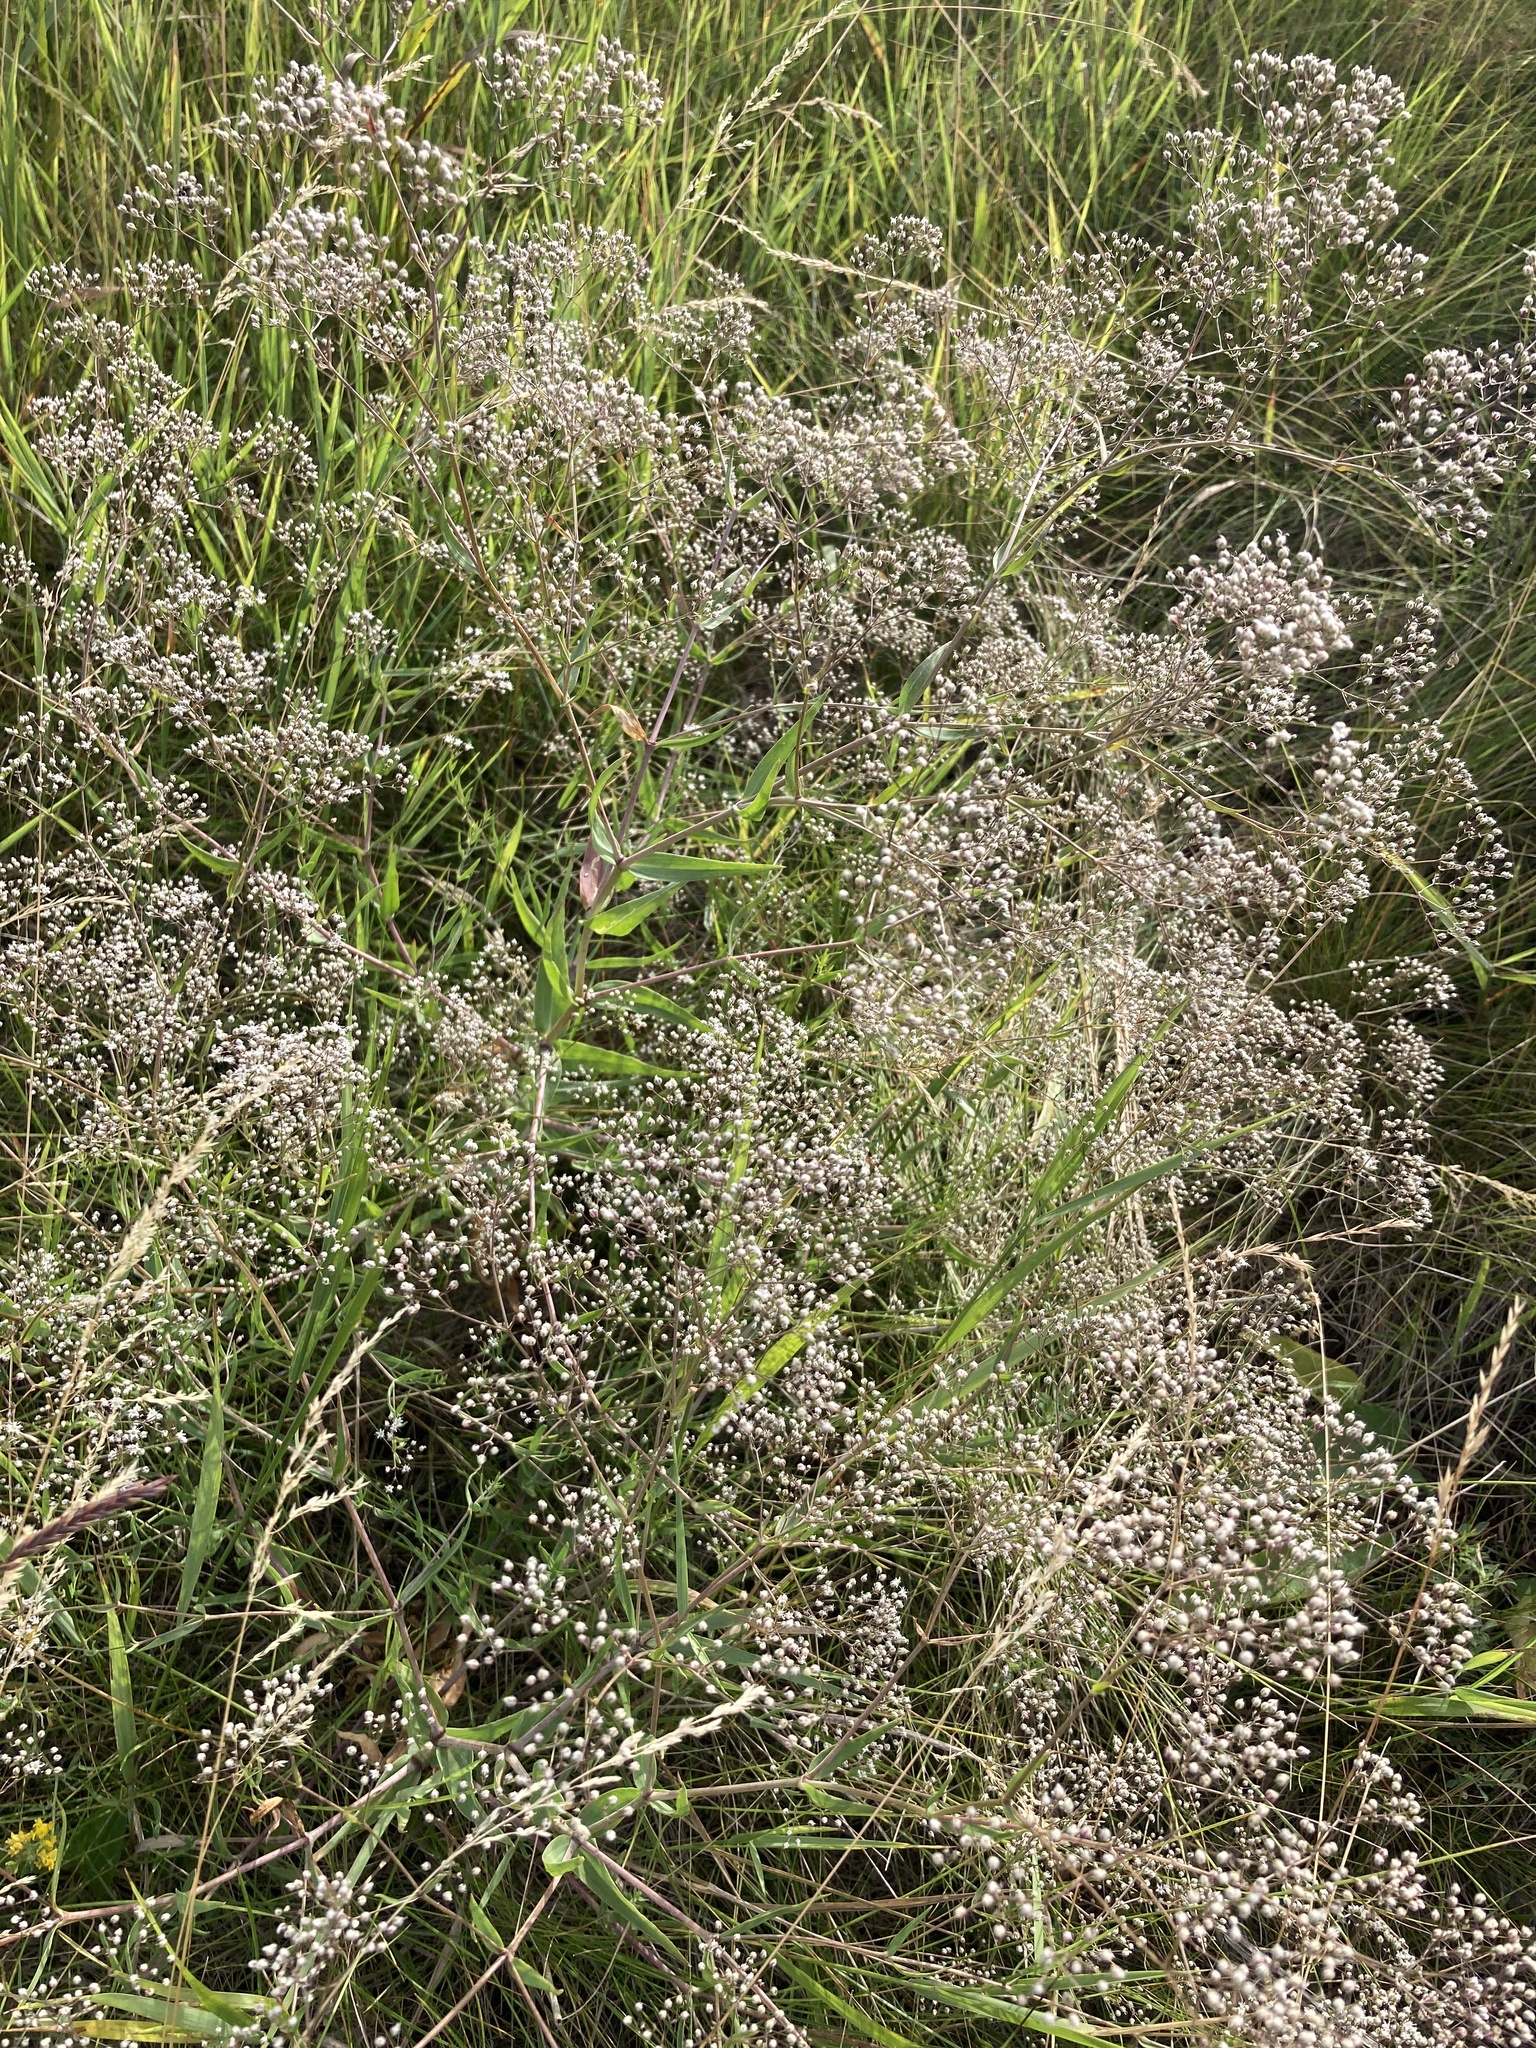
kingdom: Plantae
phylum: Tracheophyta
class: Magnoliopsida
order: Caryophyllales
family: Caryophyllaceae
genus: Gypsophila
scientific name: Gypsophila paniculata
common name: Baby's-breath
